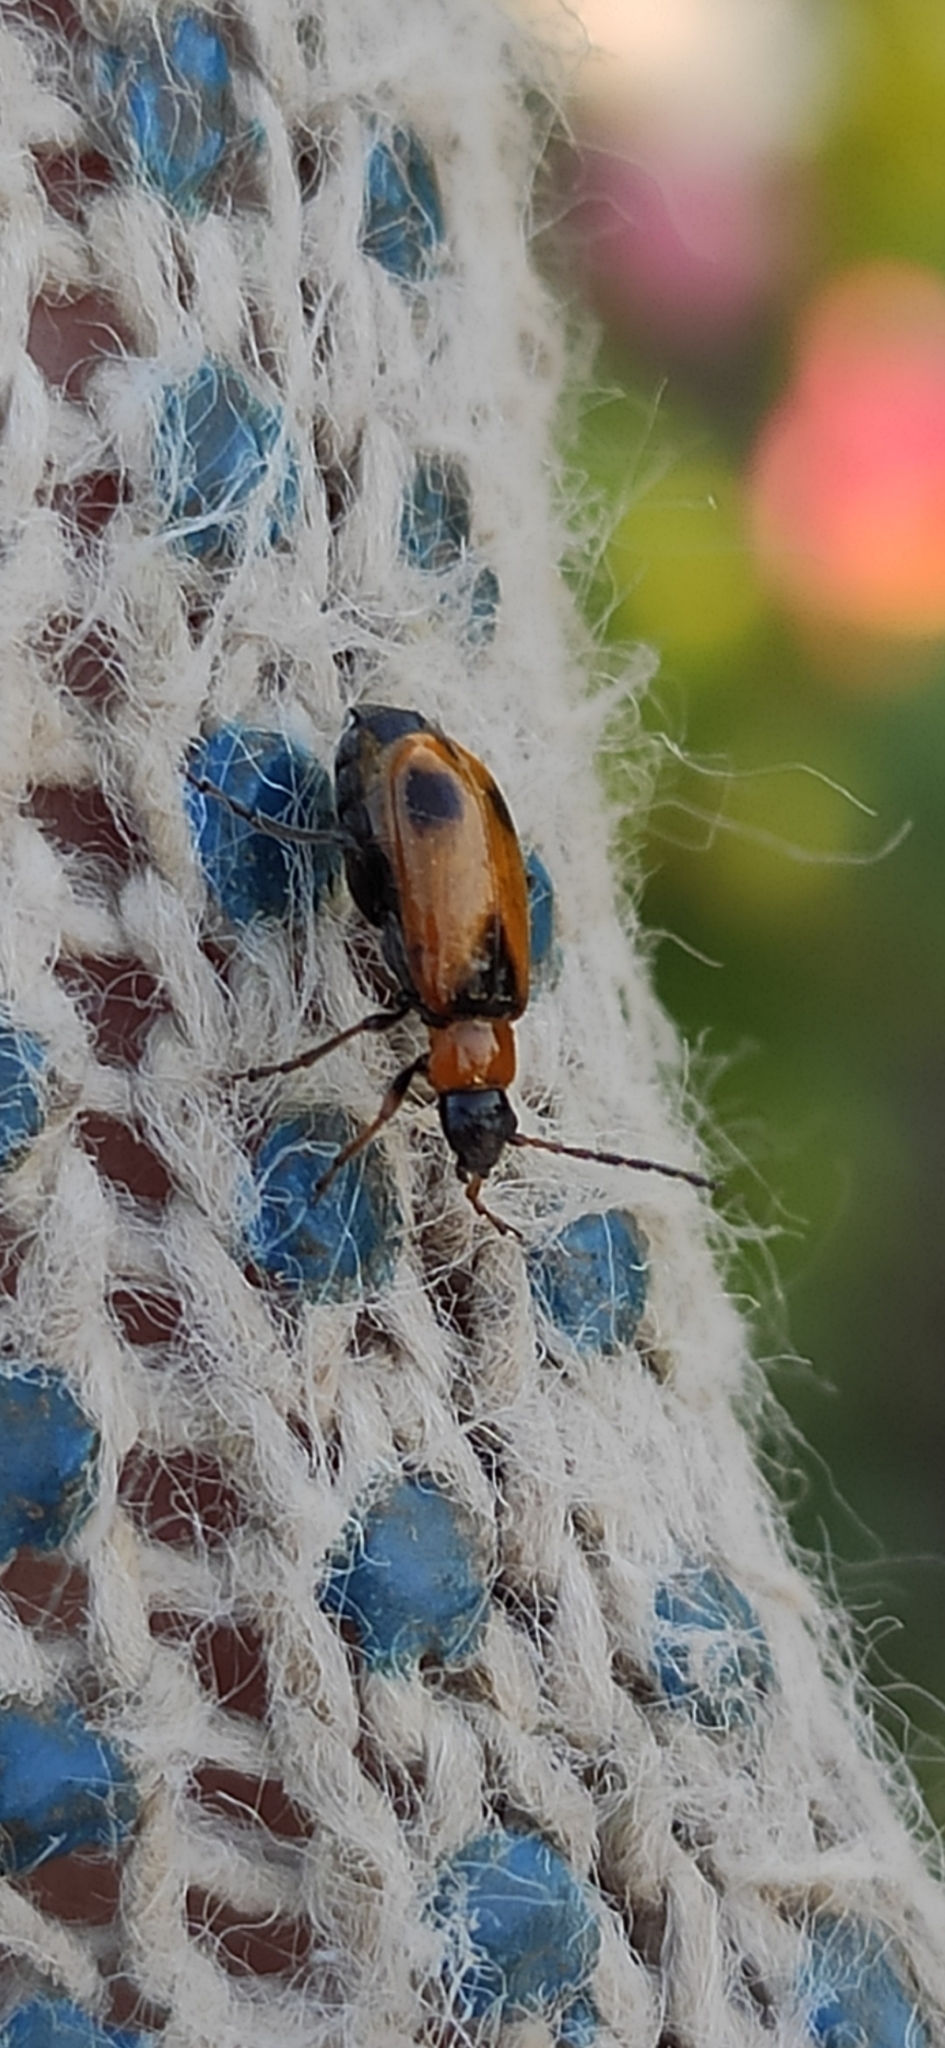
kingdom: Animalia
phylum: Arthropoda
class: Insecta
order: Coleoptera
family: Chrysomelidae
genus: Phyllobrotica
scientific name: Phyllobrotica elegans
